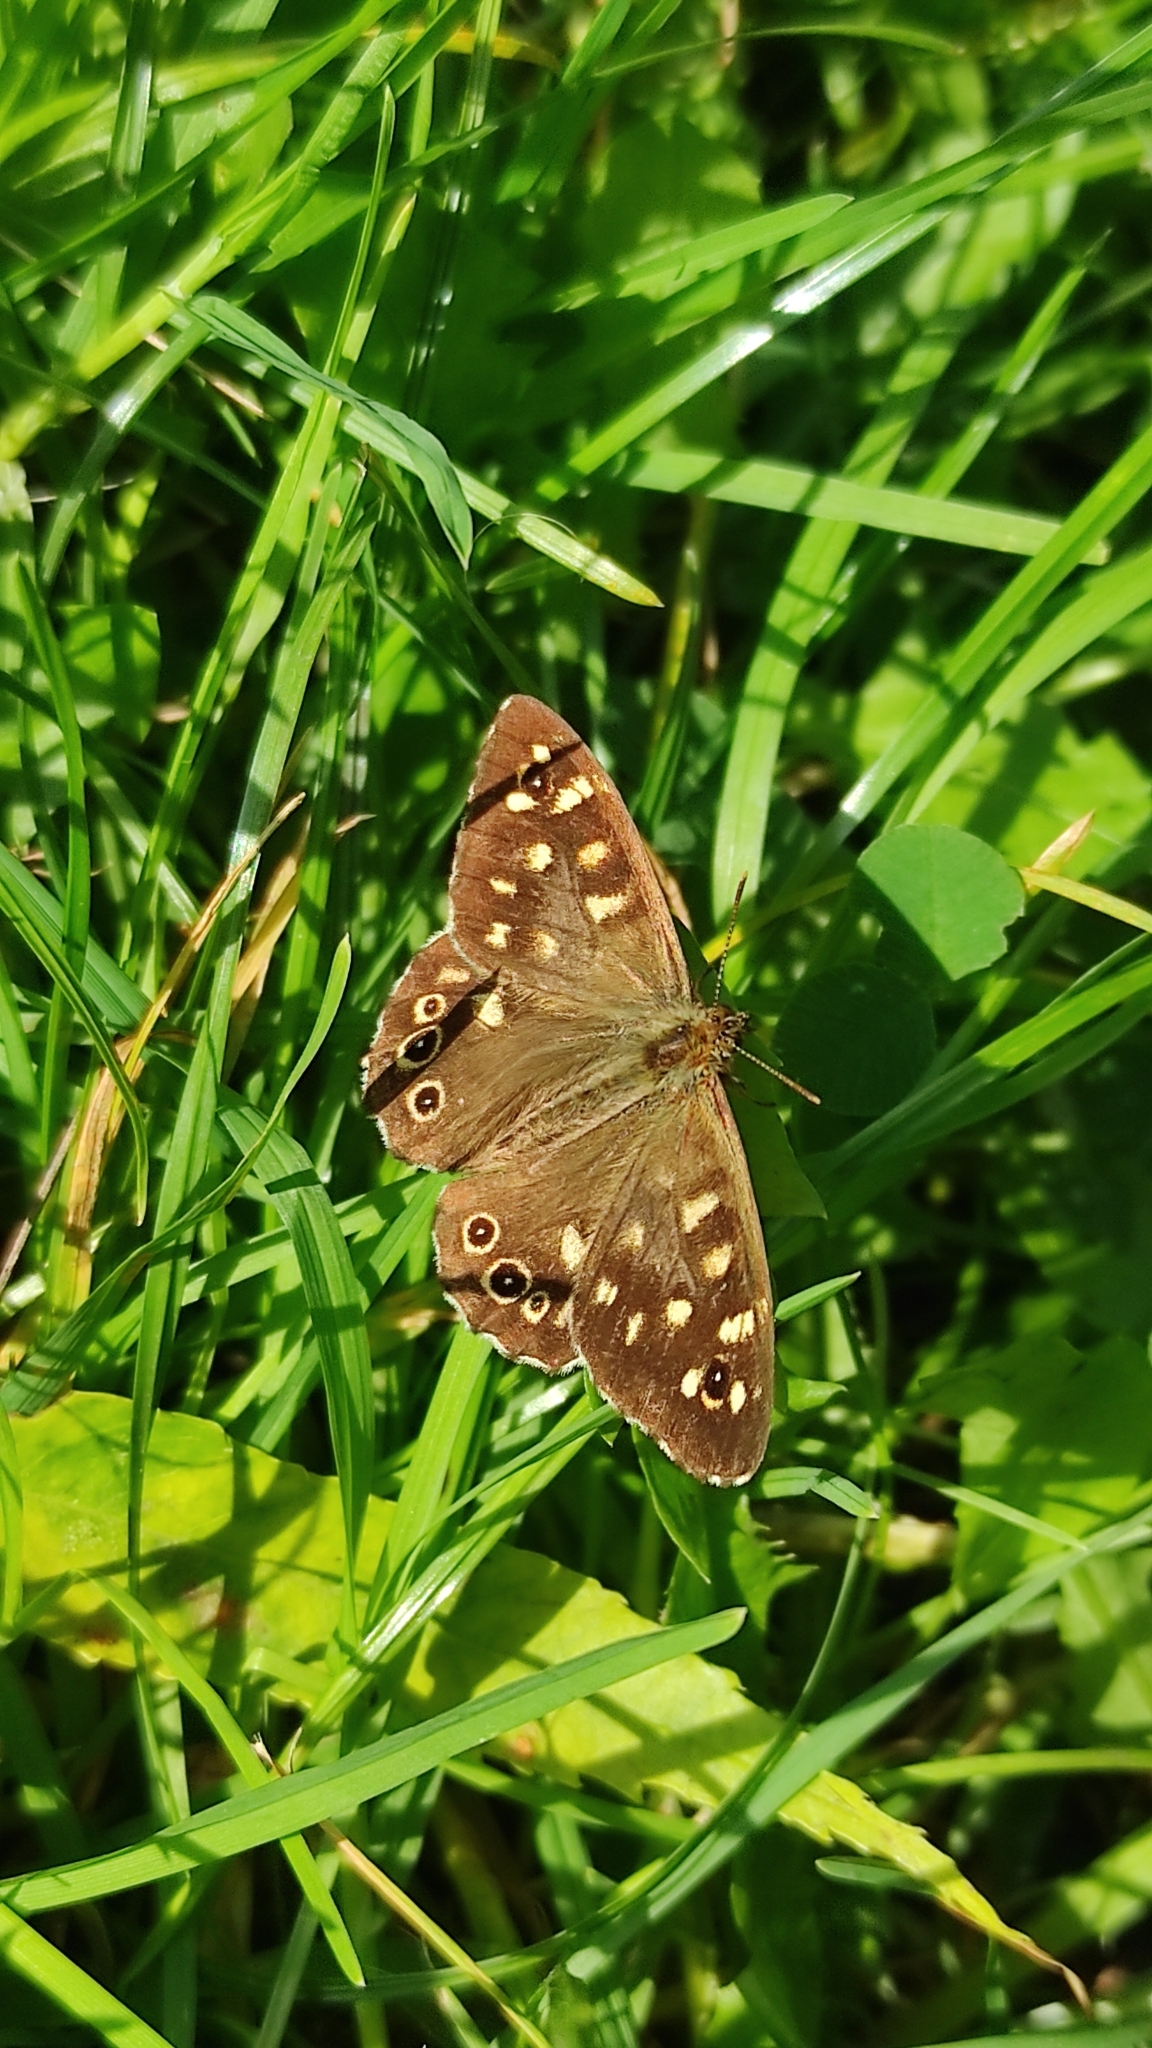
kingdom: Animalia
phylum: Arthropoda
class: Insecta
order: Lepidoptera
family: Nymphalidae
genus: Pararge
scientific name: Pararge aegeria
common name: Speckled wood
